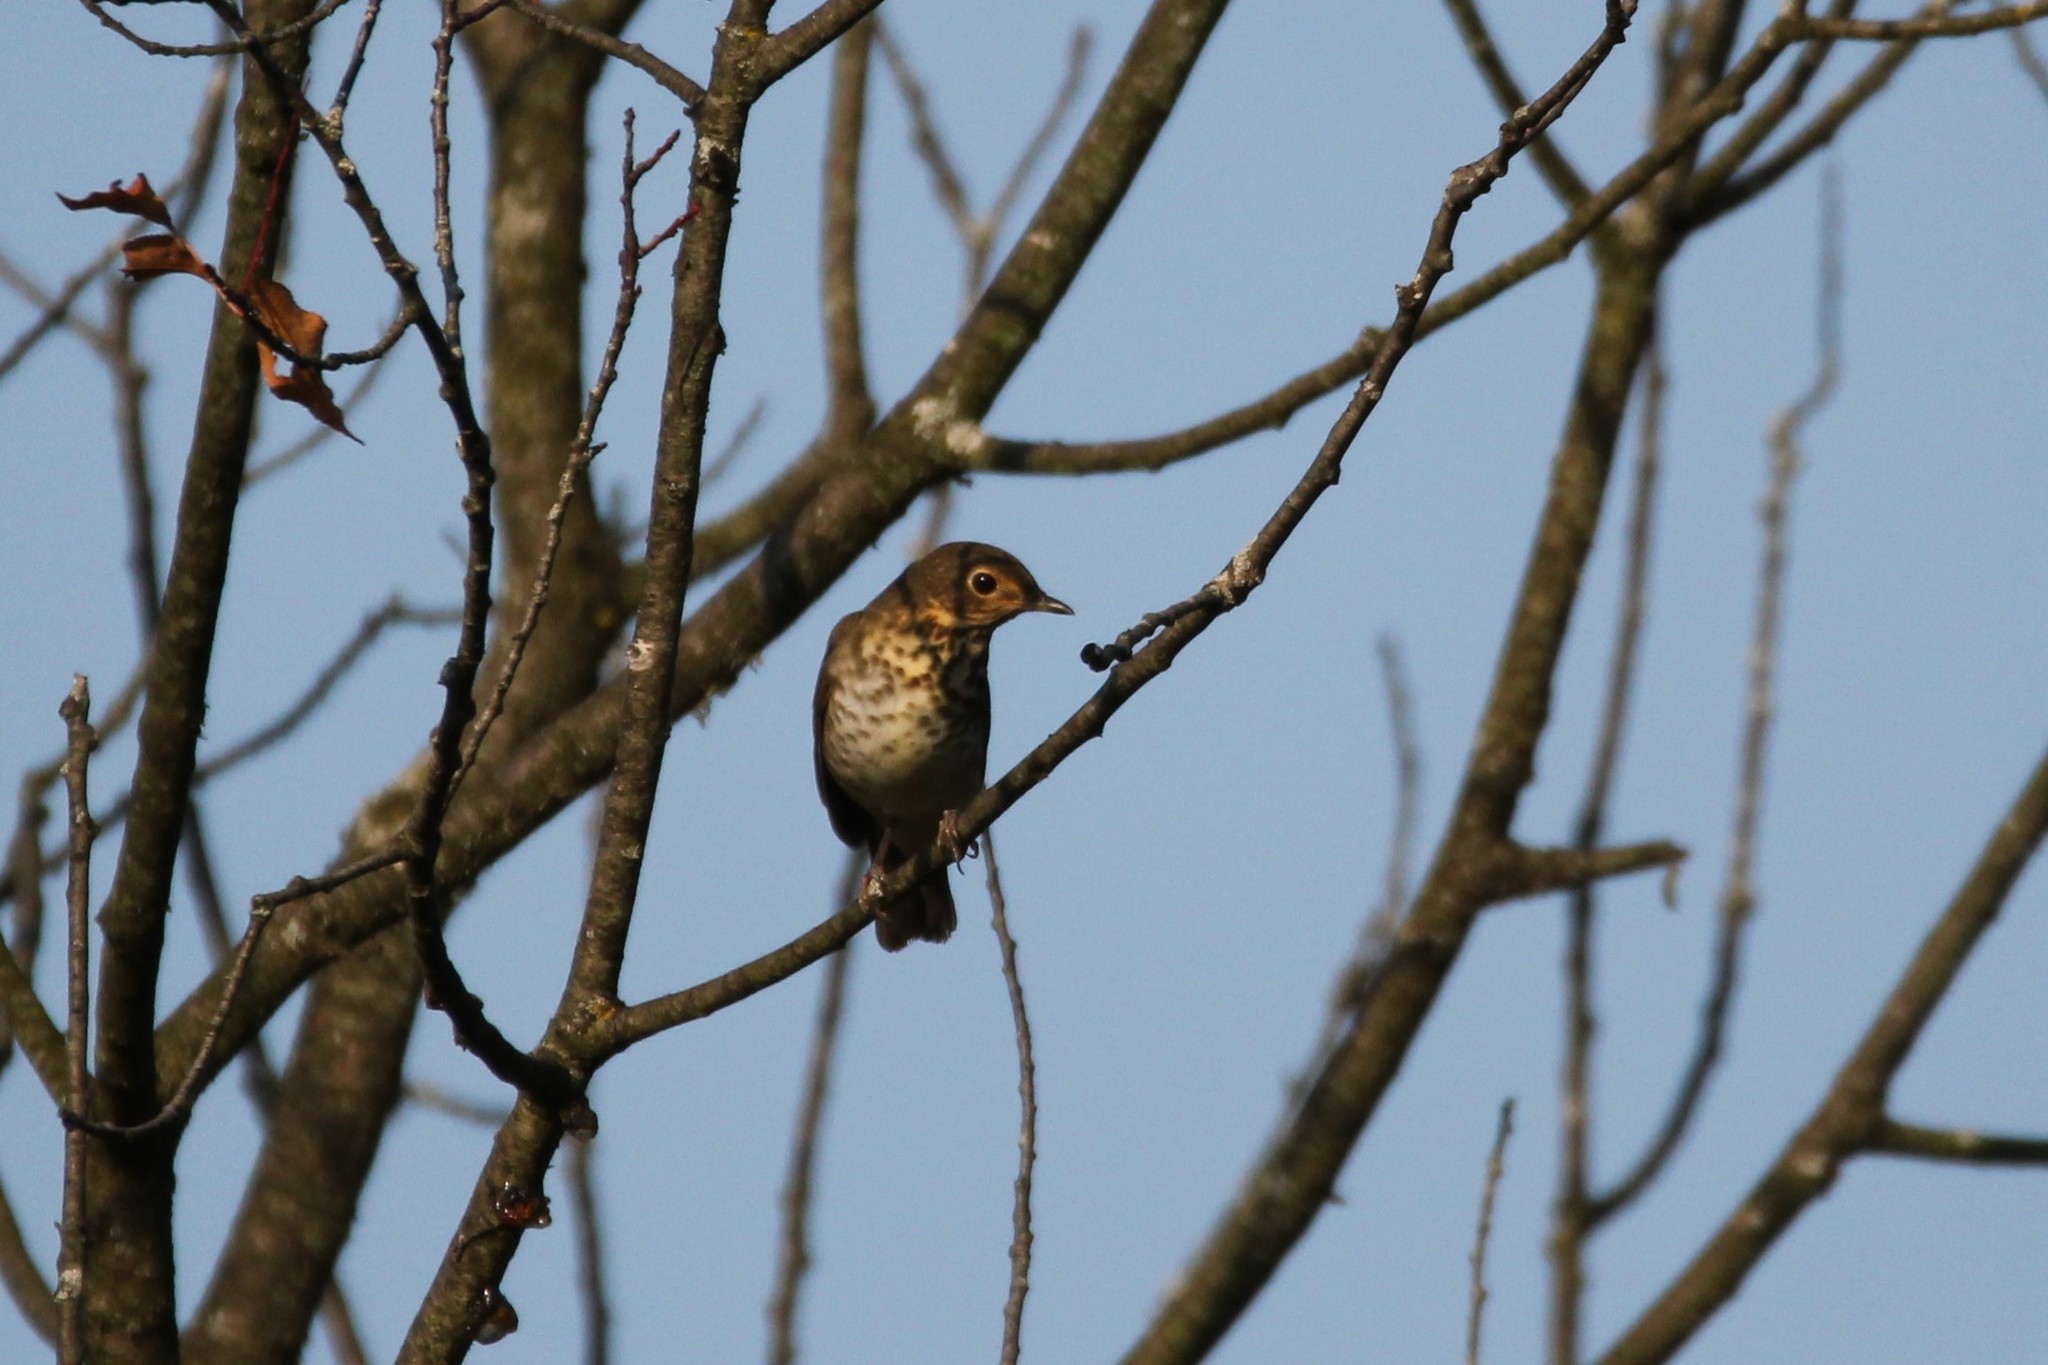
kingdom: Animalia
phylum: Chordata
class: Aves
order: Passeriformes
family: Turdidae
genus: Catharus
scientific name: Catharus ustulatus
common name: Swainson's thrush
